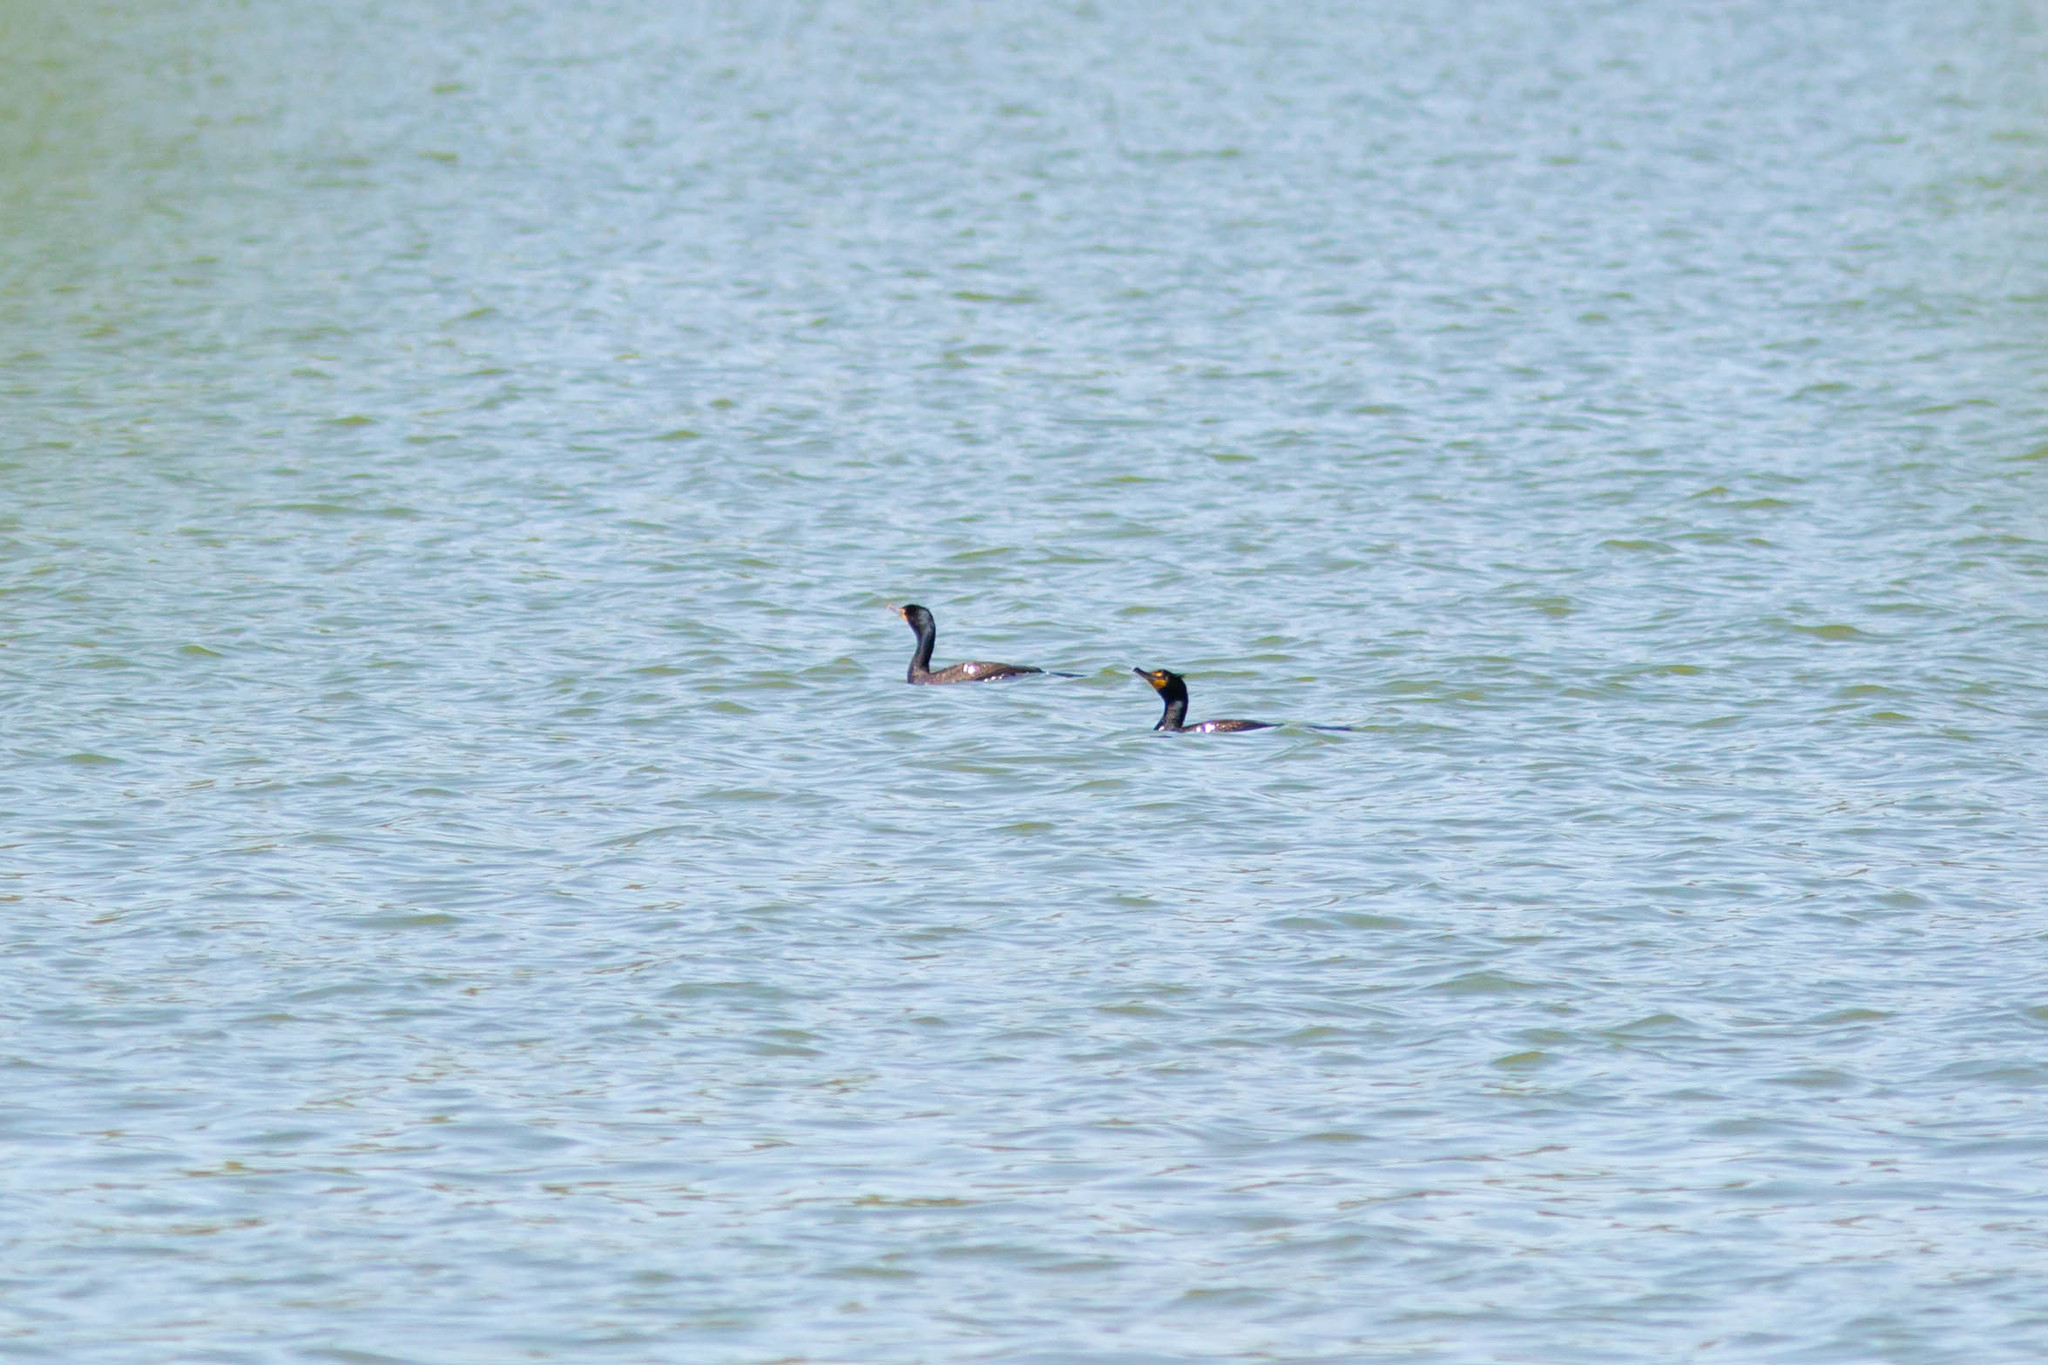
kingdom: Animalia
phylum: Chordata
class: Aves
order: Suliformes
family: Phalacrocoracidae
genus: Phalacrocorax
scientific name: Phalacrocorax auritus
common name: Double-crested cormorant
